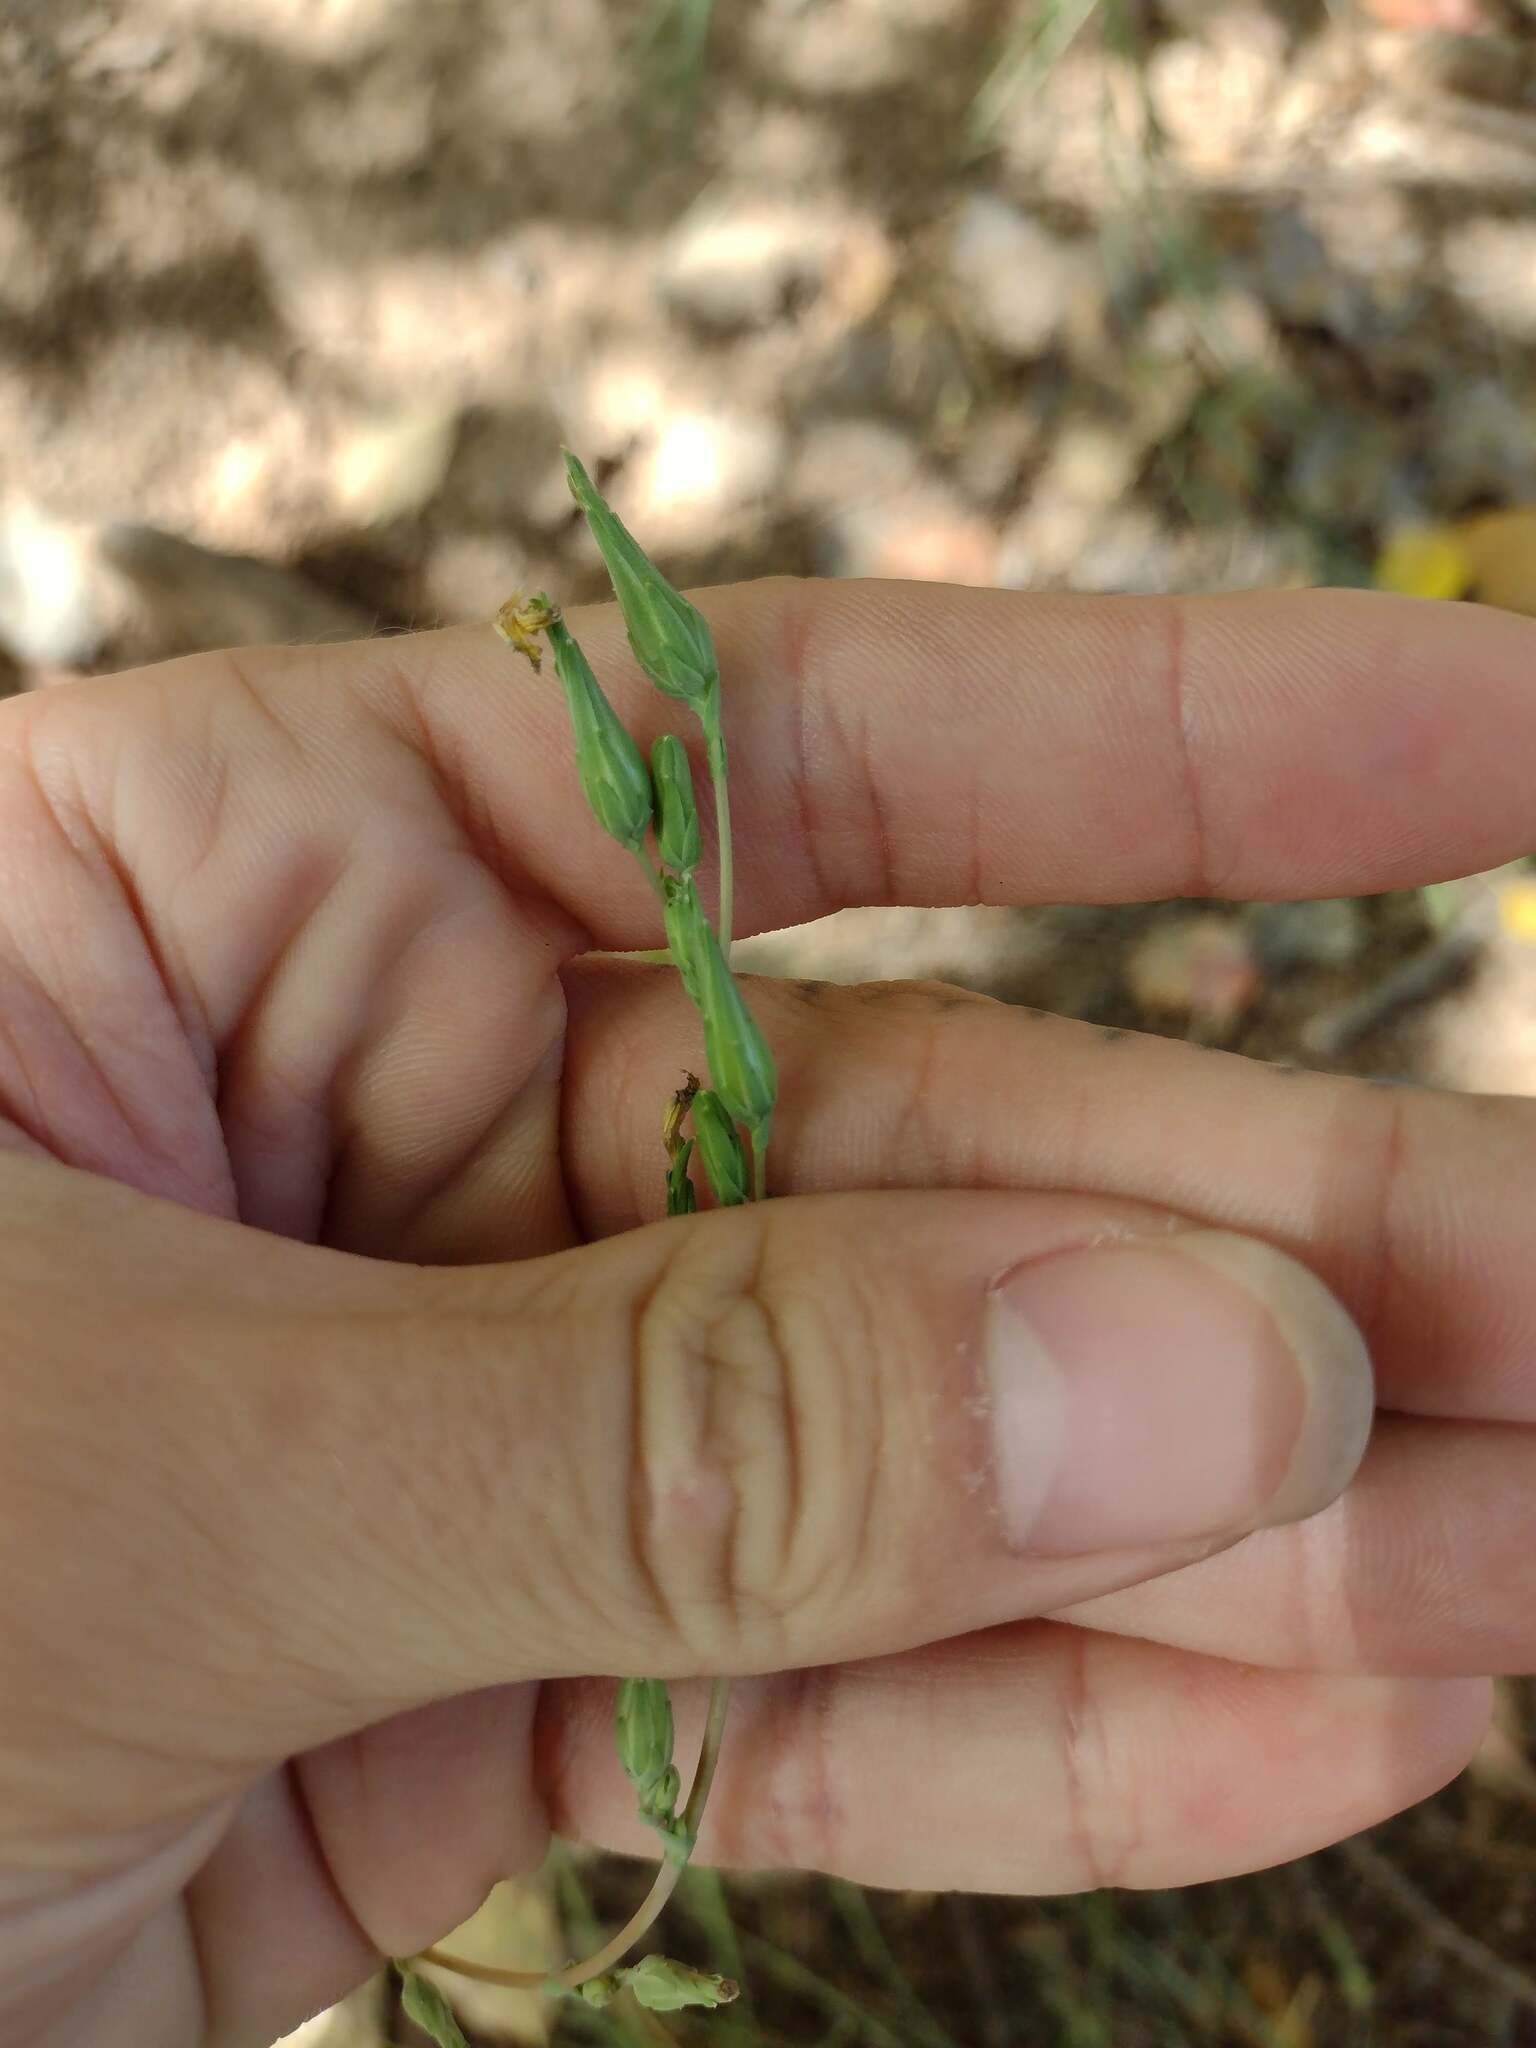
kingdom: Plantae
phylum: Tracheophyta
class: Magnoliopsida
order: Asterales
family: Asteraceae
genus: Lactuca
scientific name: Lactuca serriola
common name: Prickly lettuce
